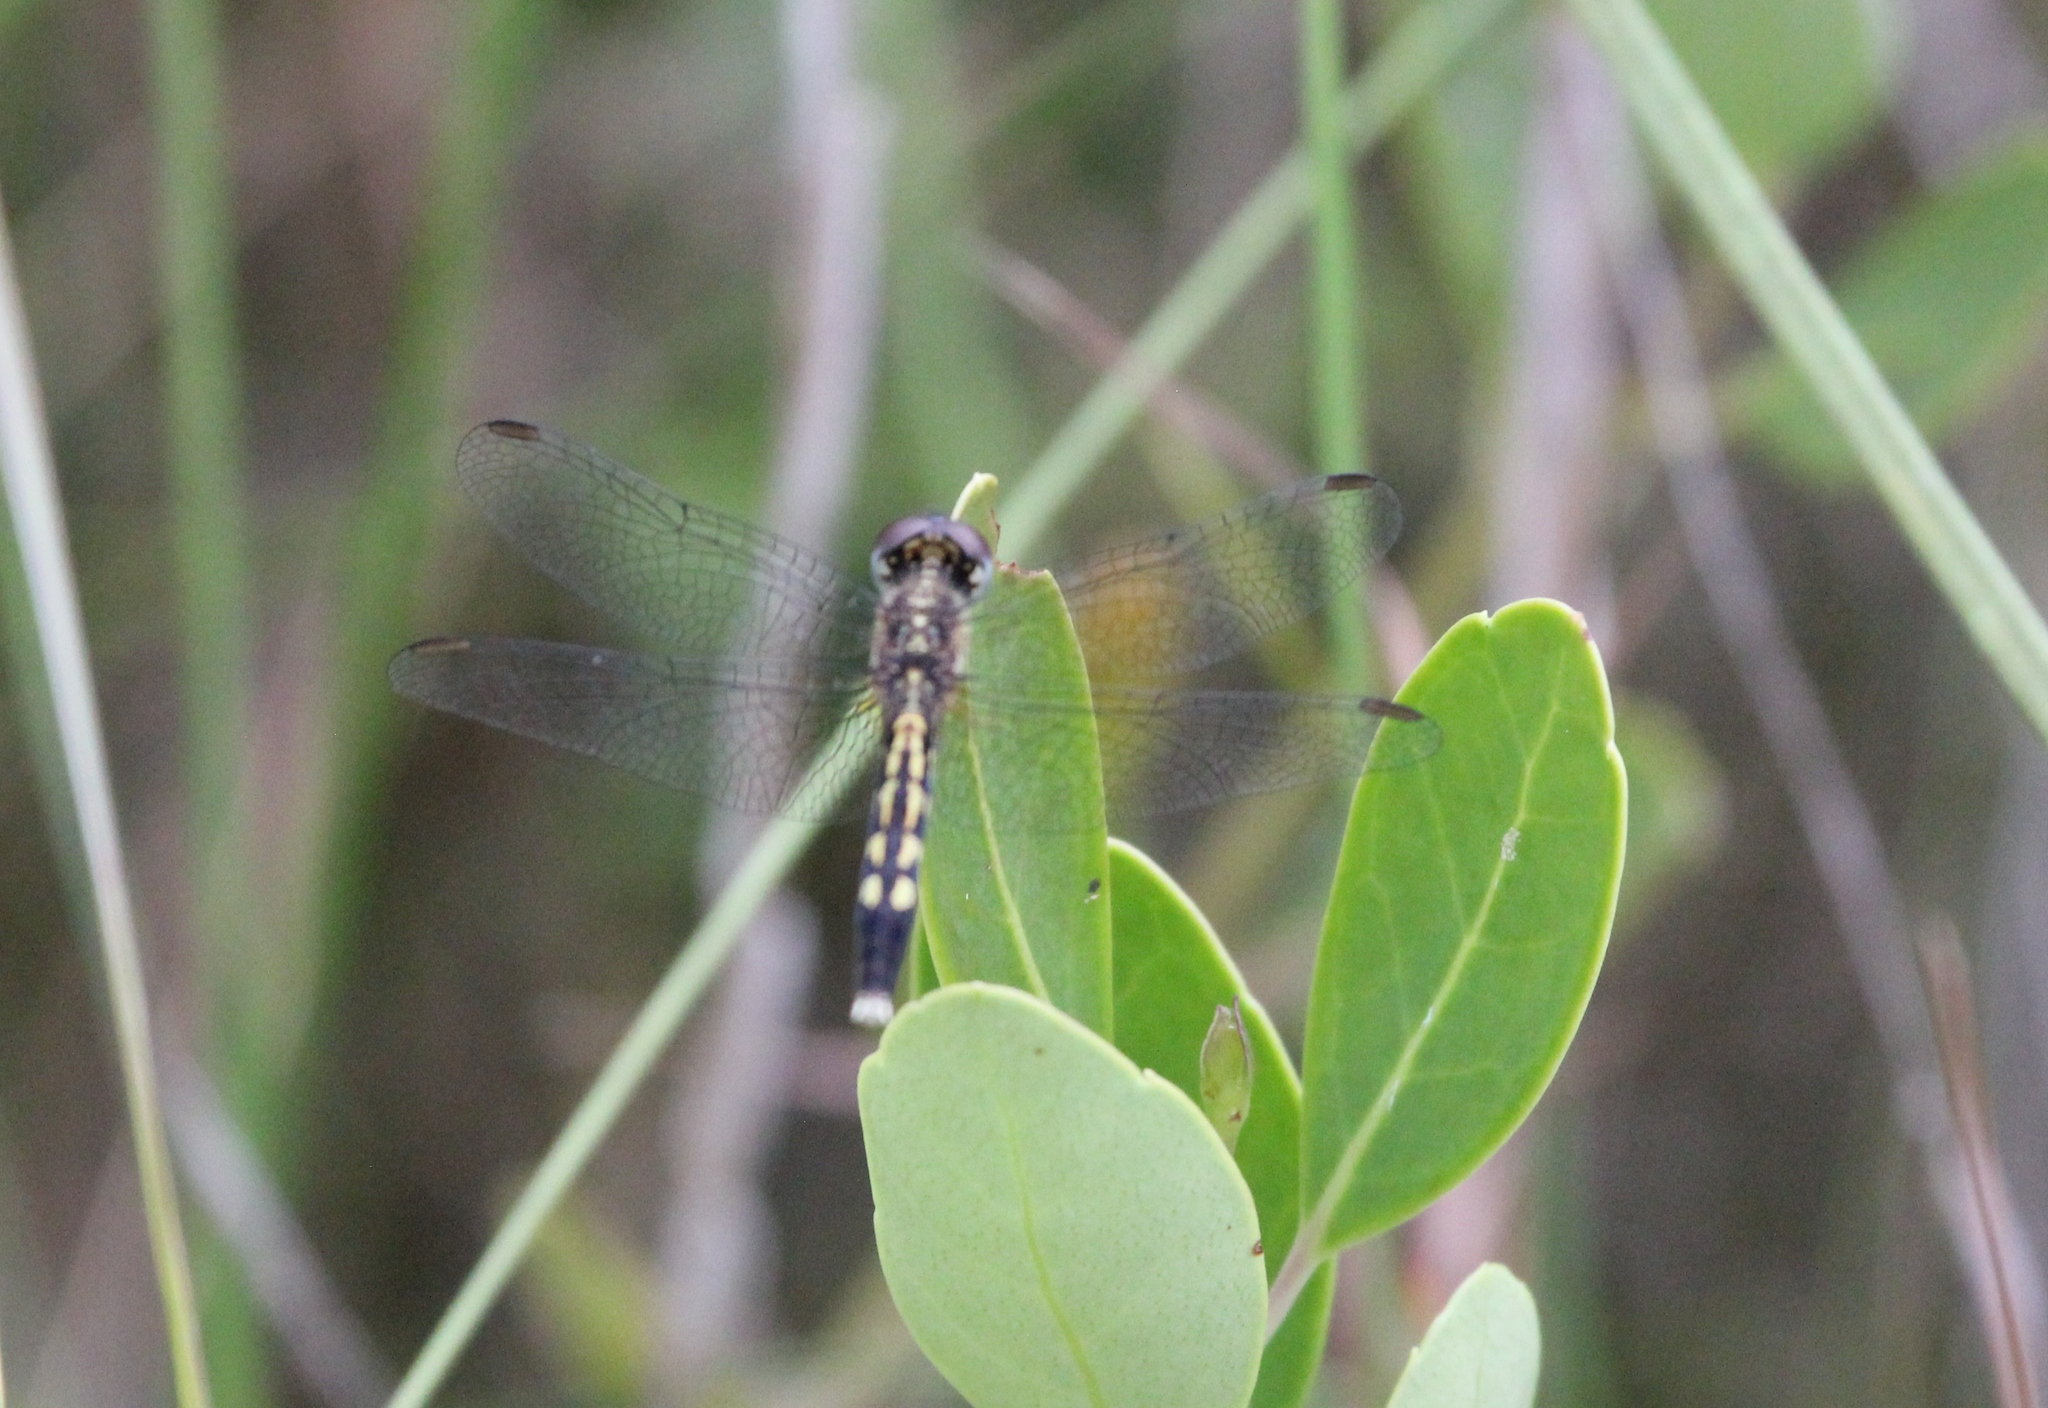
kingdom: Animalia
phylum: Arthropoda
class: Insecta
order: Odonata
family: Libellulidae
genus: Erythrodiplax
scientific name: Erythrodiplax minuscula
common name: Little blue dragonlet
